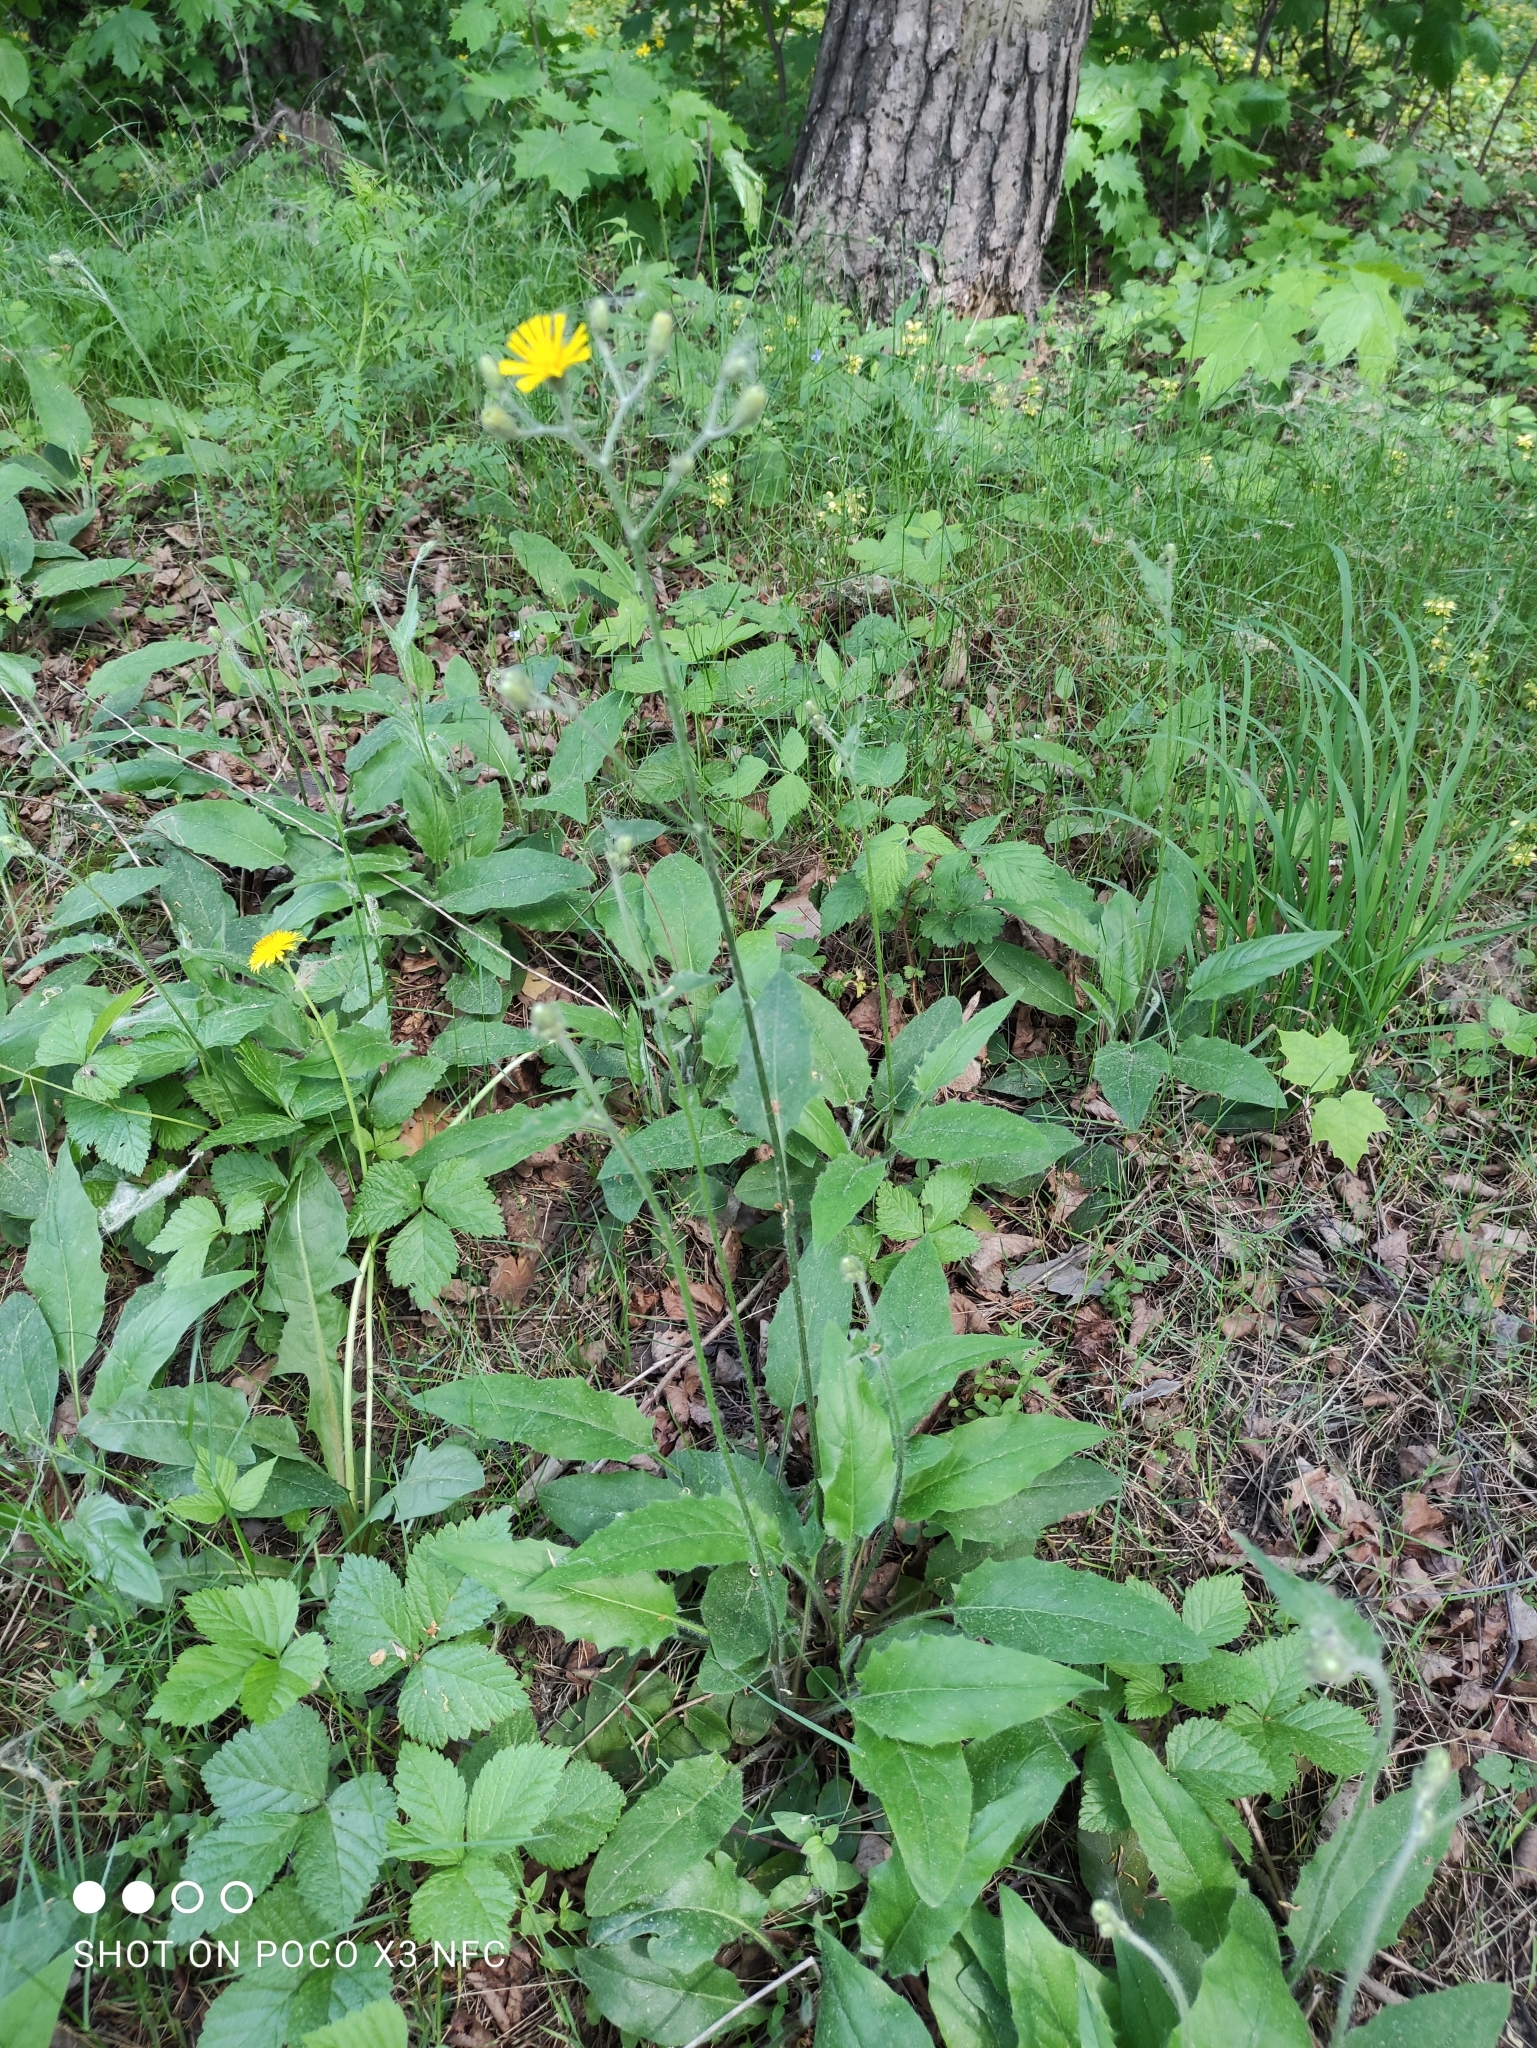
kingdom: Plantae
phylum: Tracheophyta
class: Magnoliopsida
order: Asterales
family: Asteraceae
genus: Hieracium
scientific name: Hieracium murorum
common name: Wall hawkweed
